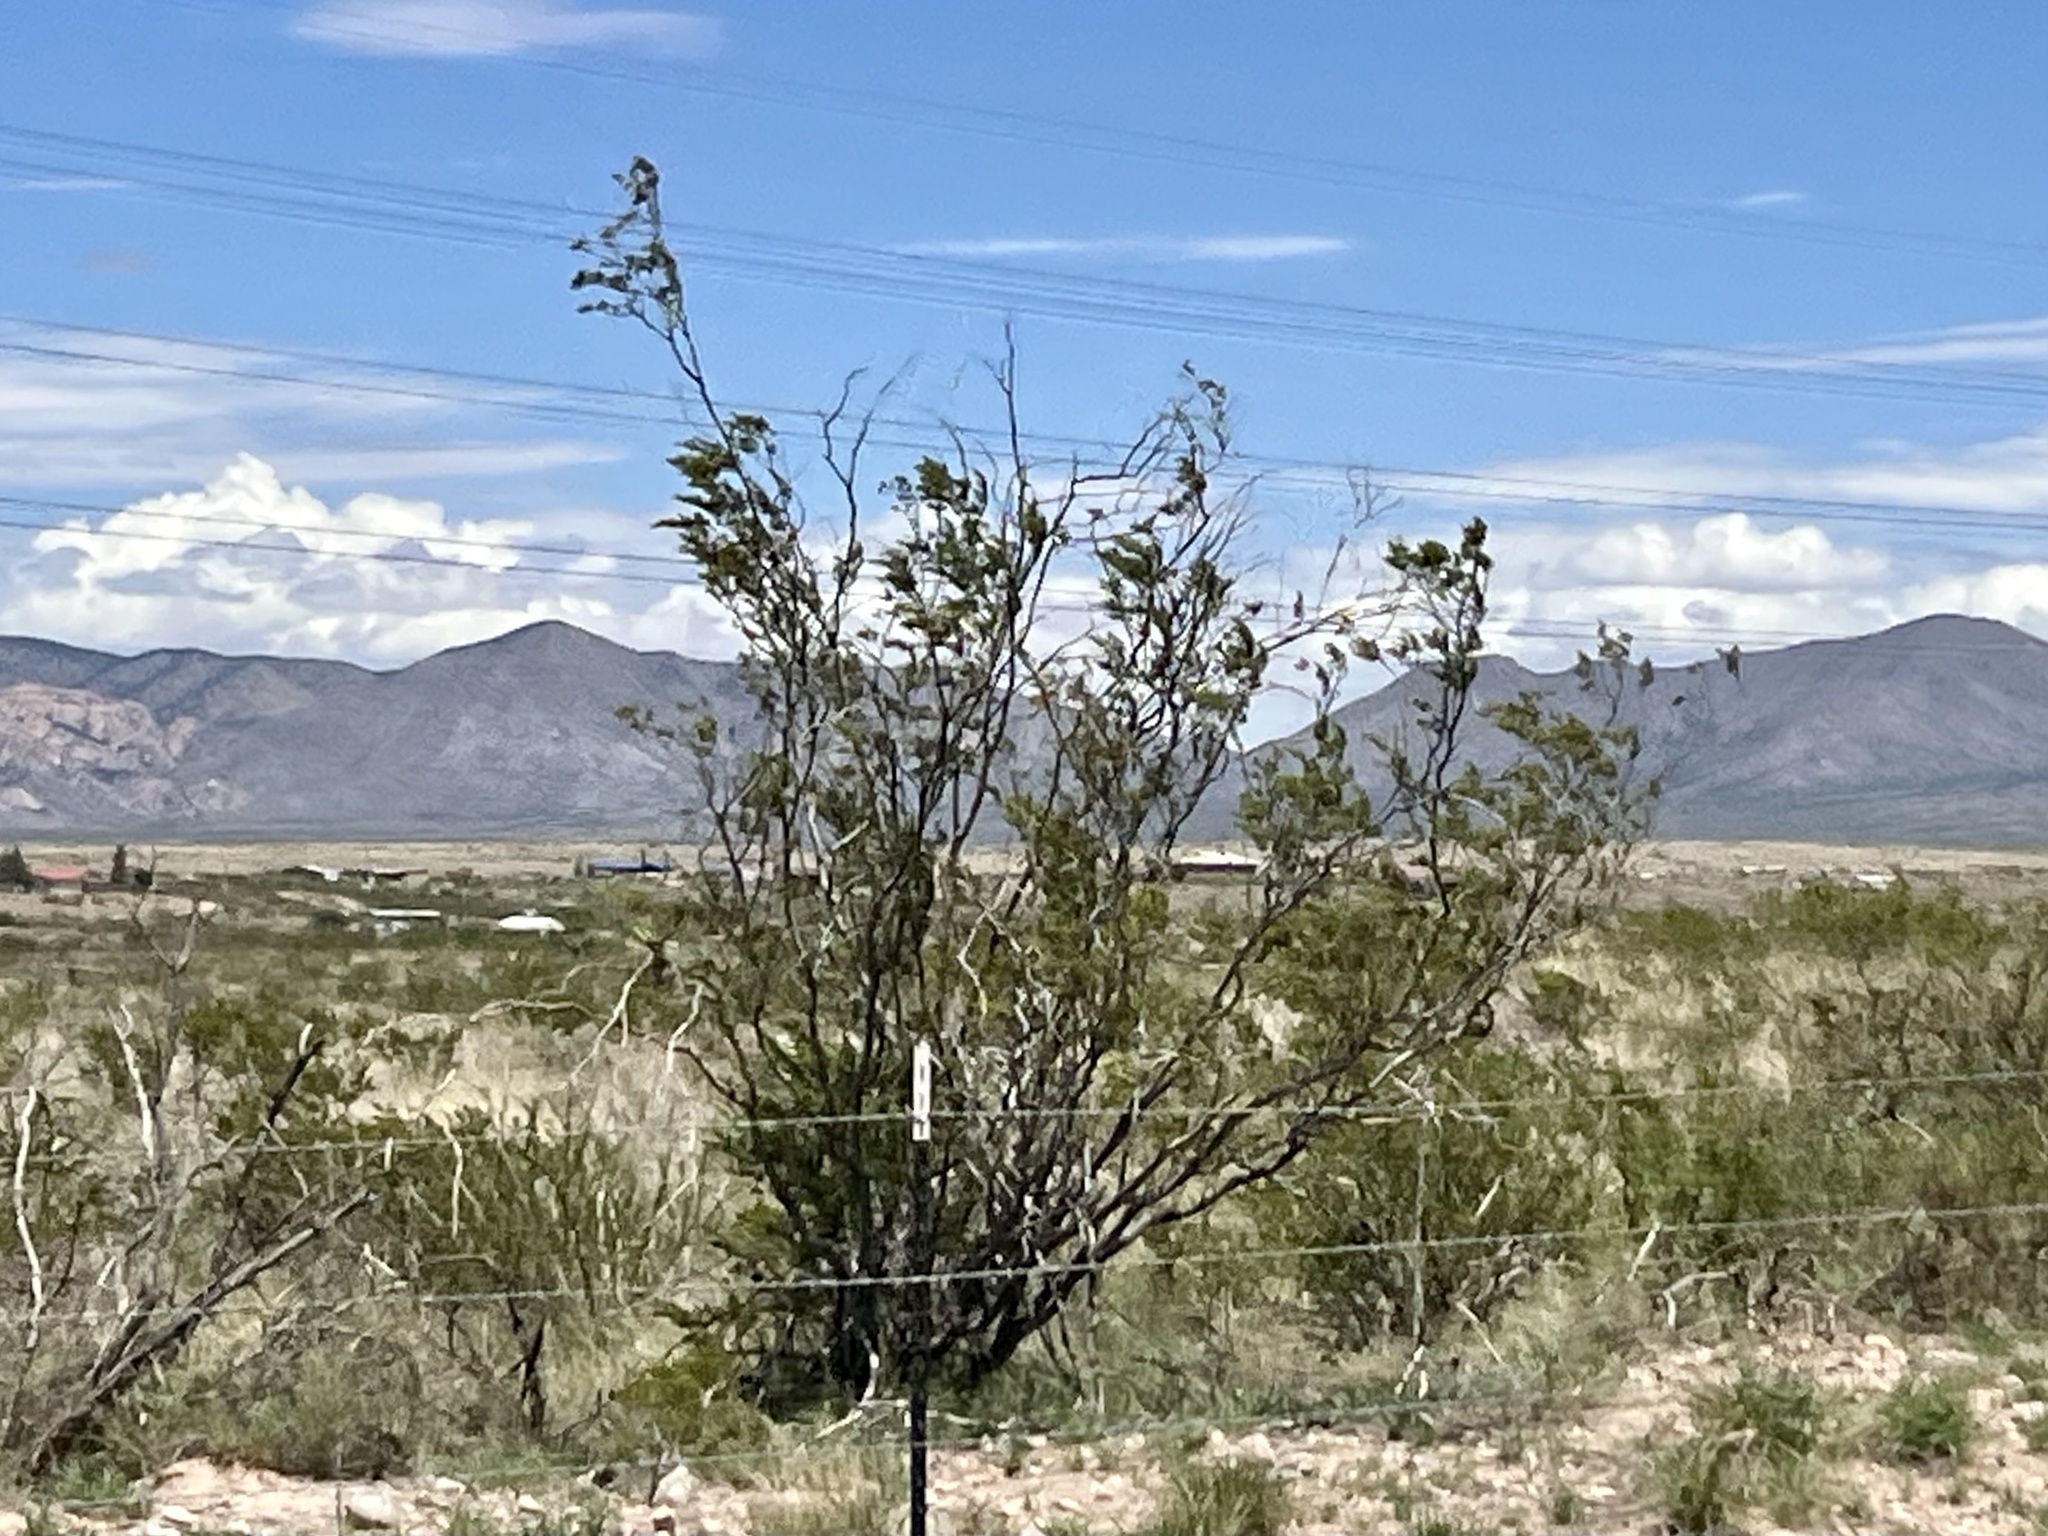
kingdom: Plantae
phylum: Tracheophyta
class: Magnoliopsida
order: Zygophyllales
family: Zygophyllaceae
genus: Larrea
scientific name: Larrea tridentata
